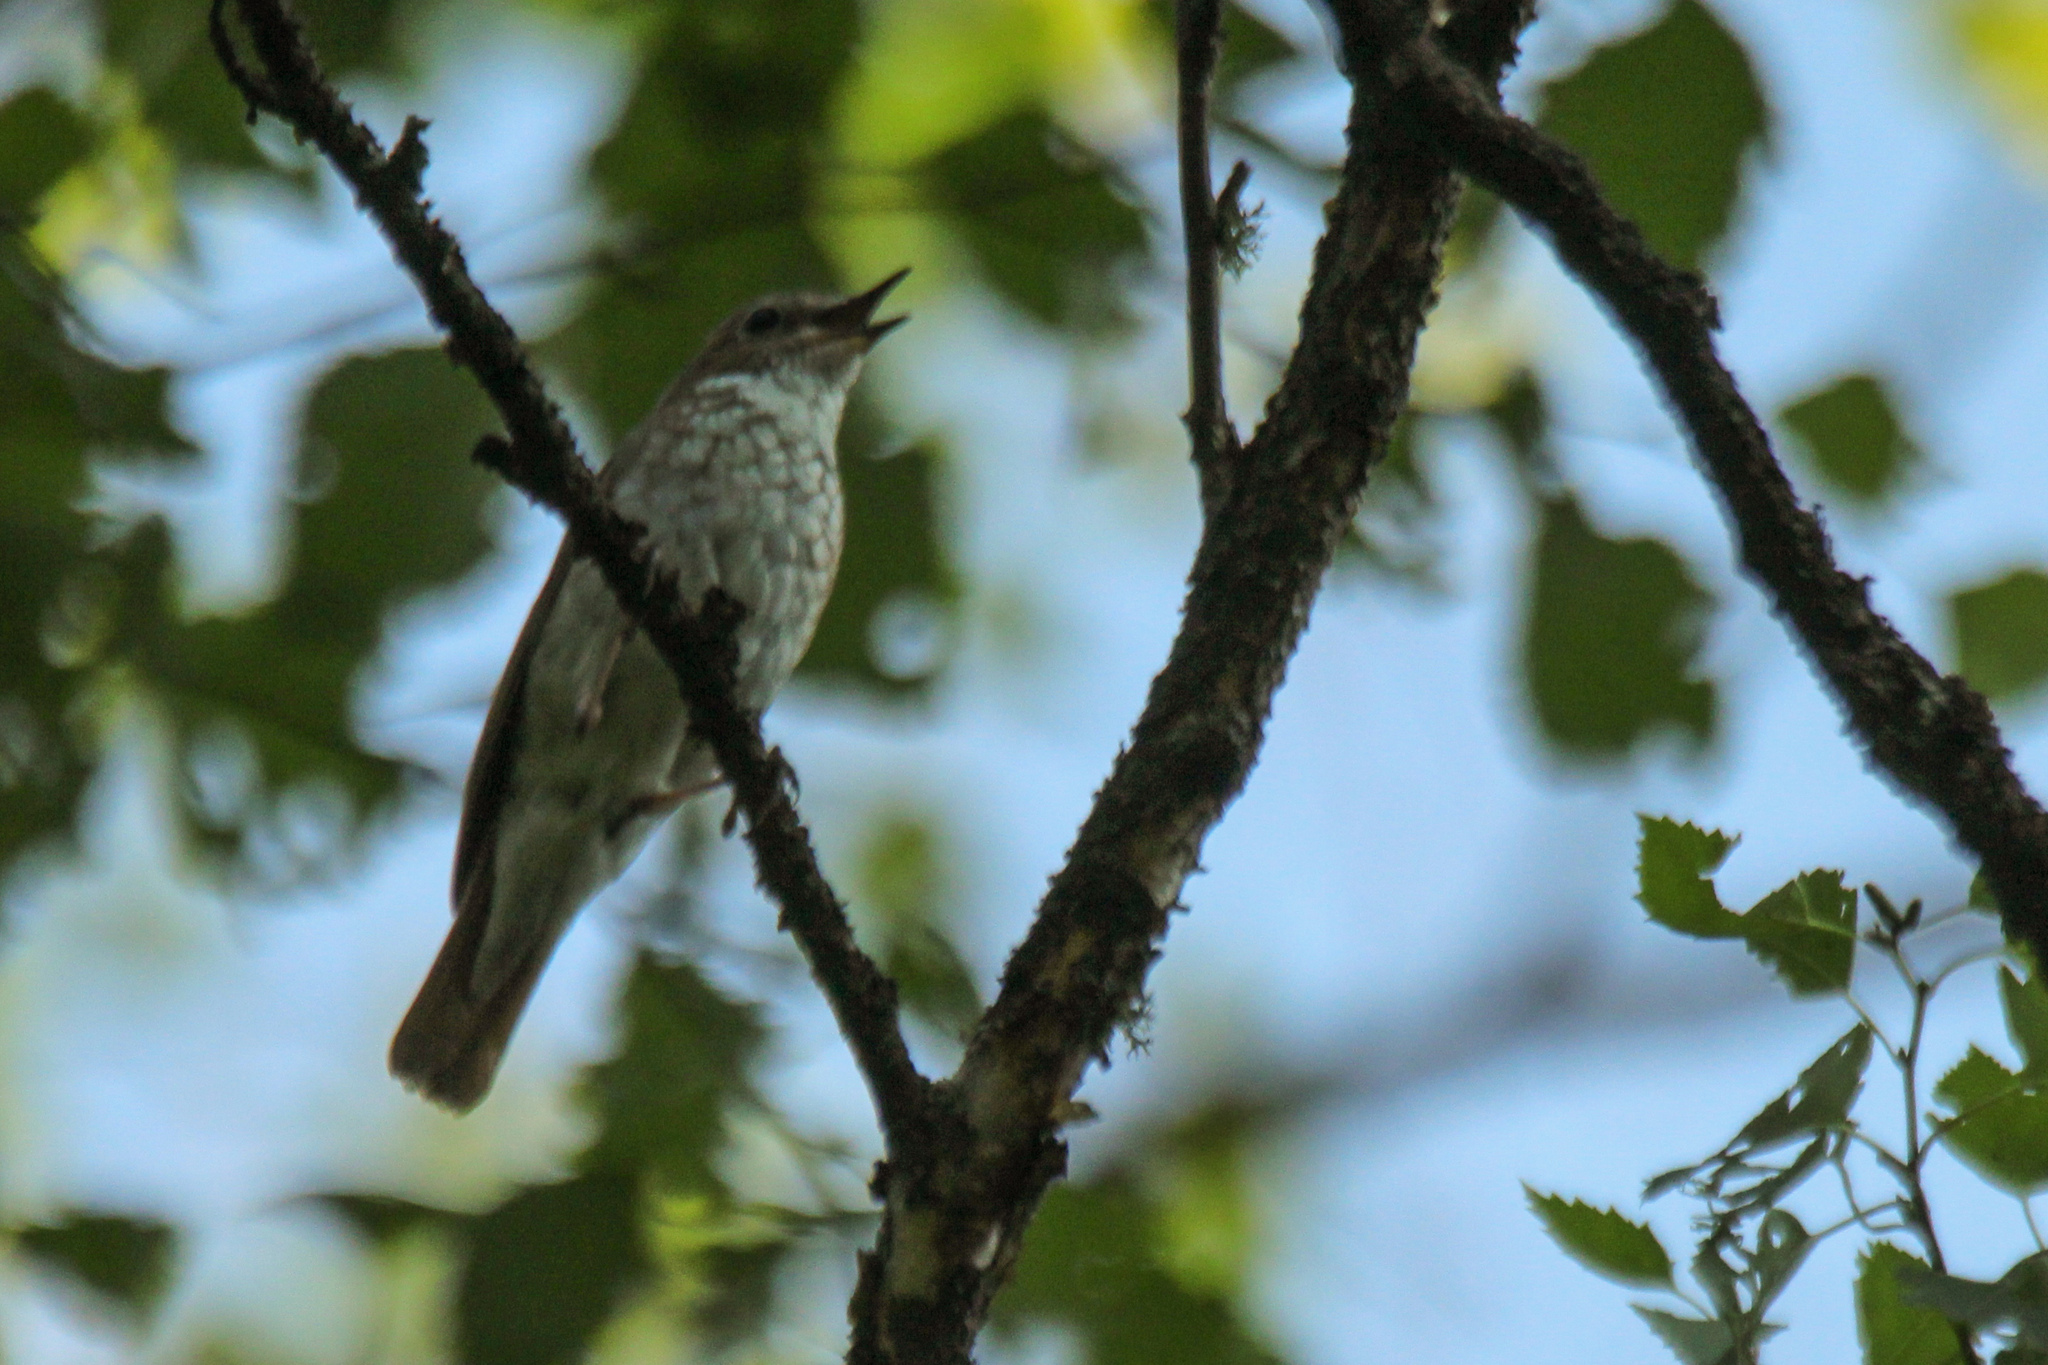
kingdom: Animalia
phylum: Chordata
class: Aves
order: Passeriformes
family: Muscicapidae
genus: Larvivora
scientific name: Larvivora sibilans
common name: Rufous-tailed robin
